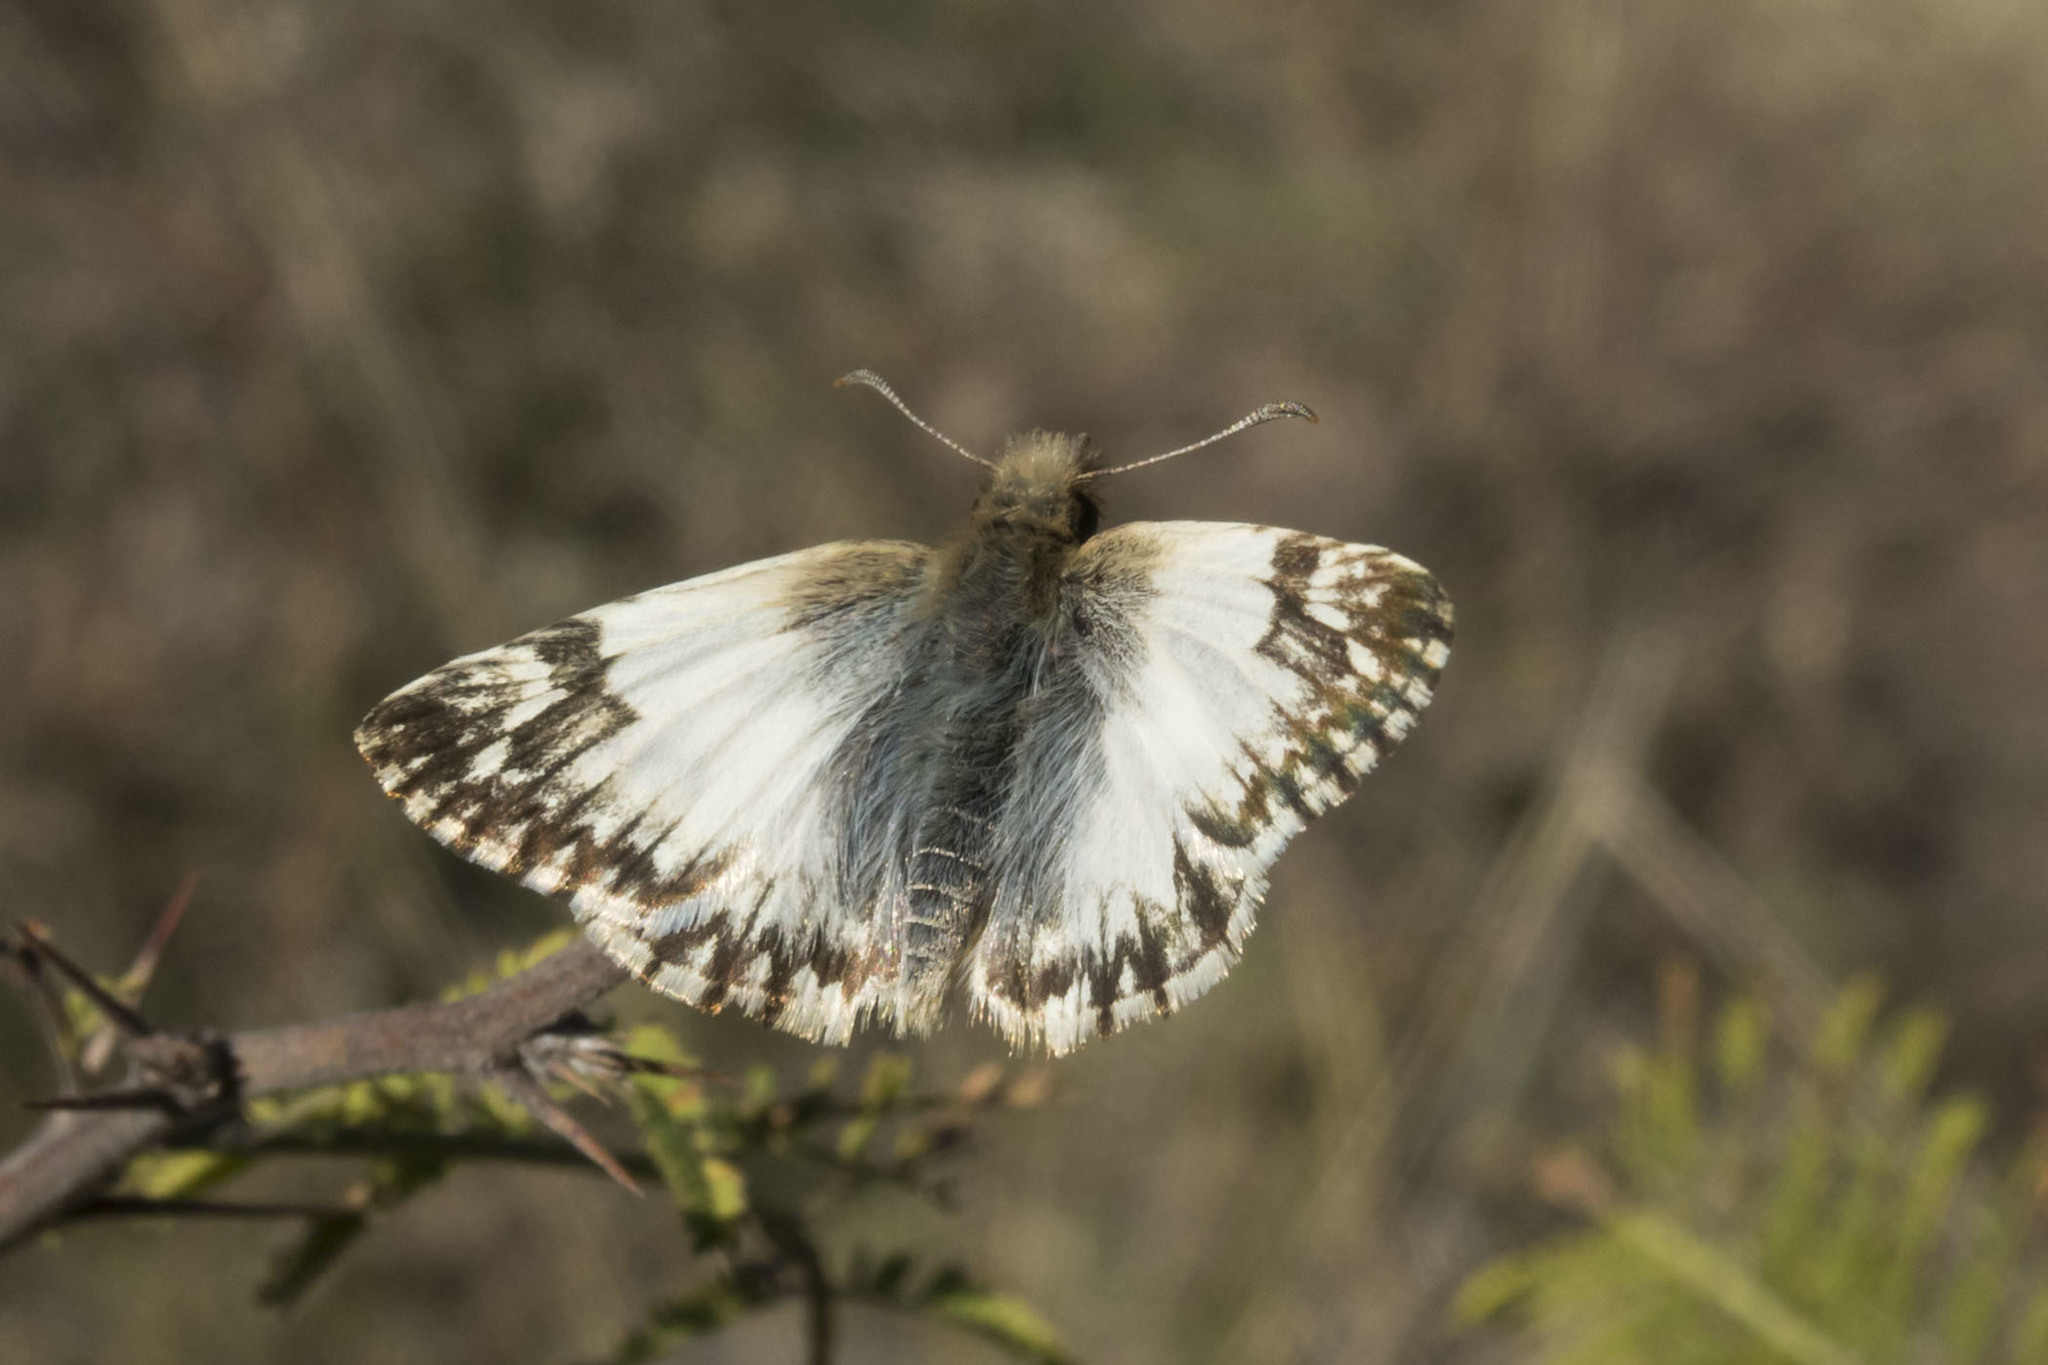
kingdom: Animalia
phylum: Arthropoda
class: Insecta
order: Lepidoptera
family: Hesperiidae
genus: Heliopetes
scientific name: Heliopetes omrina
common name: Stained white-skipper
